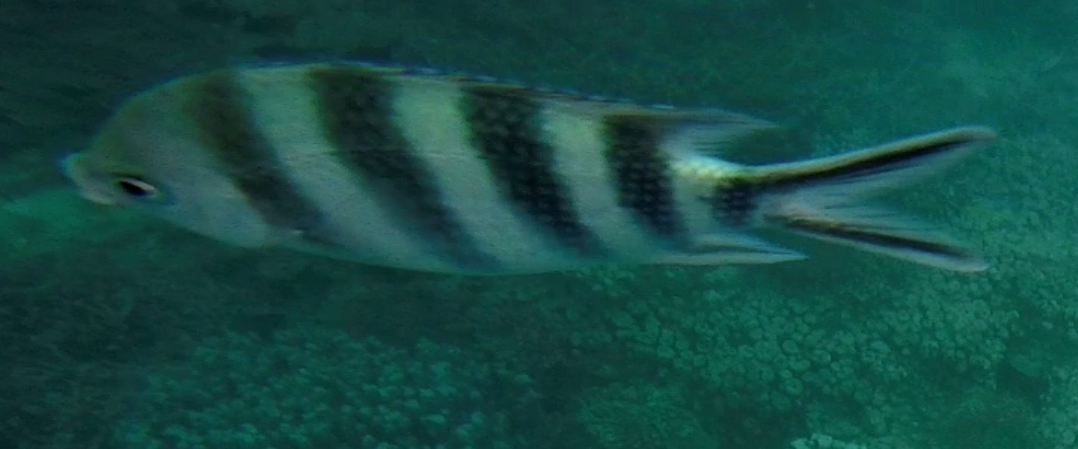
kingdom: Animalia
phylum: Chordata
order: Perciformes
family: Pomacentridae
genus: Abudefduf
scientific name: Abudefduf sexfasciatus
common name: Scissortail sergeant
